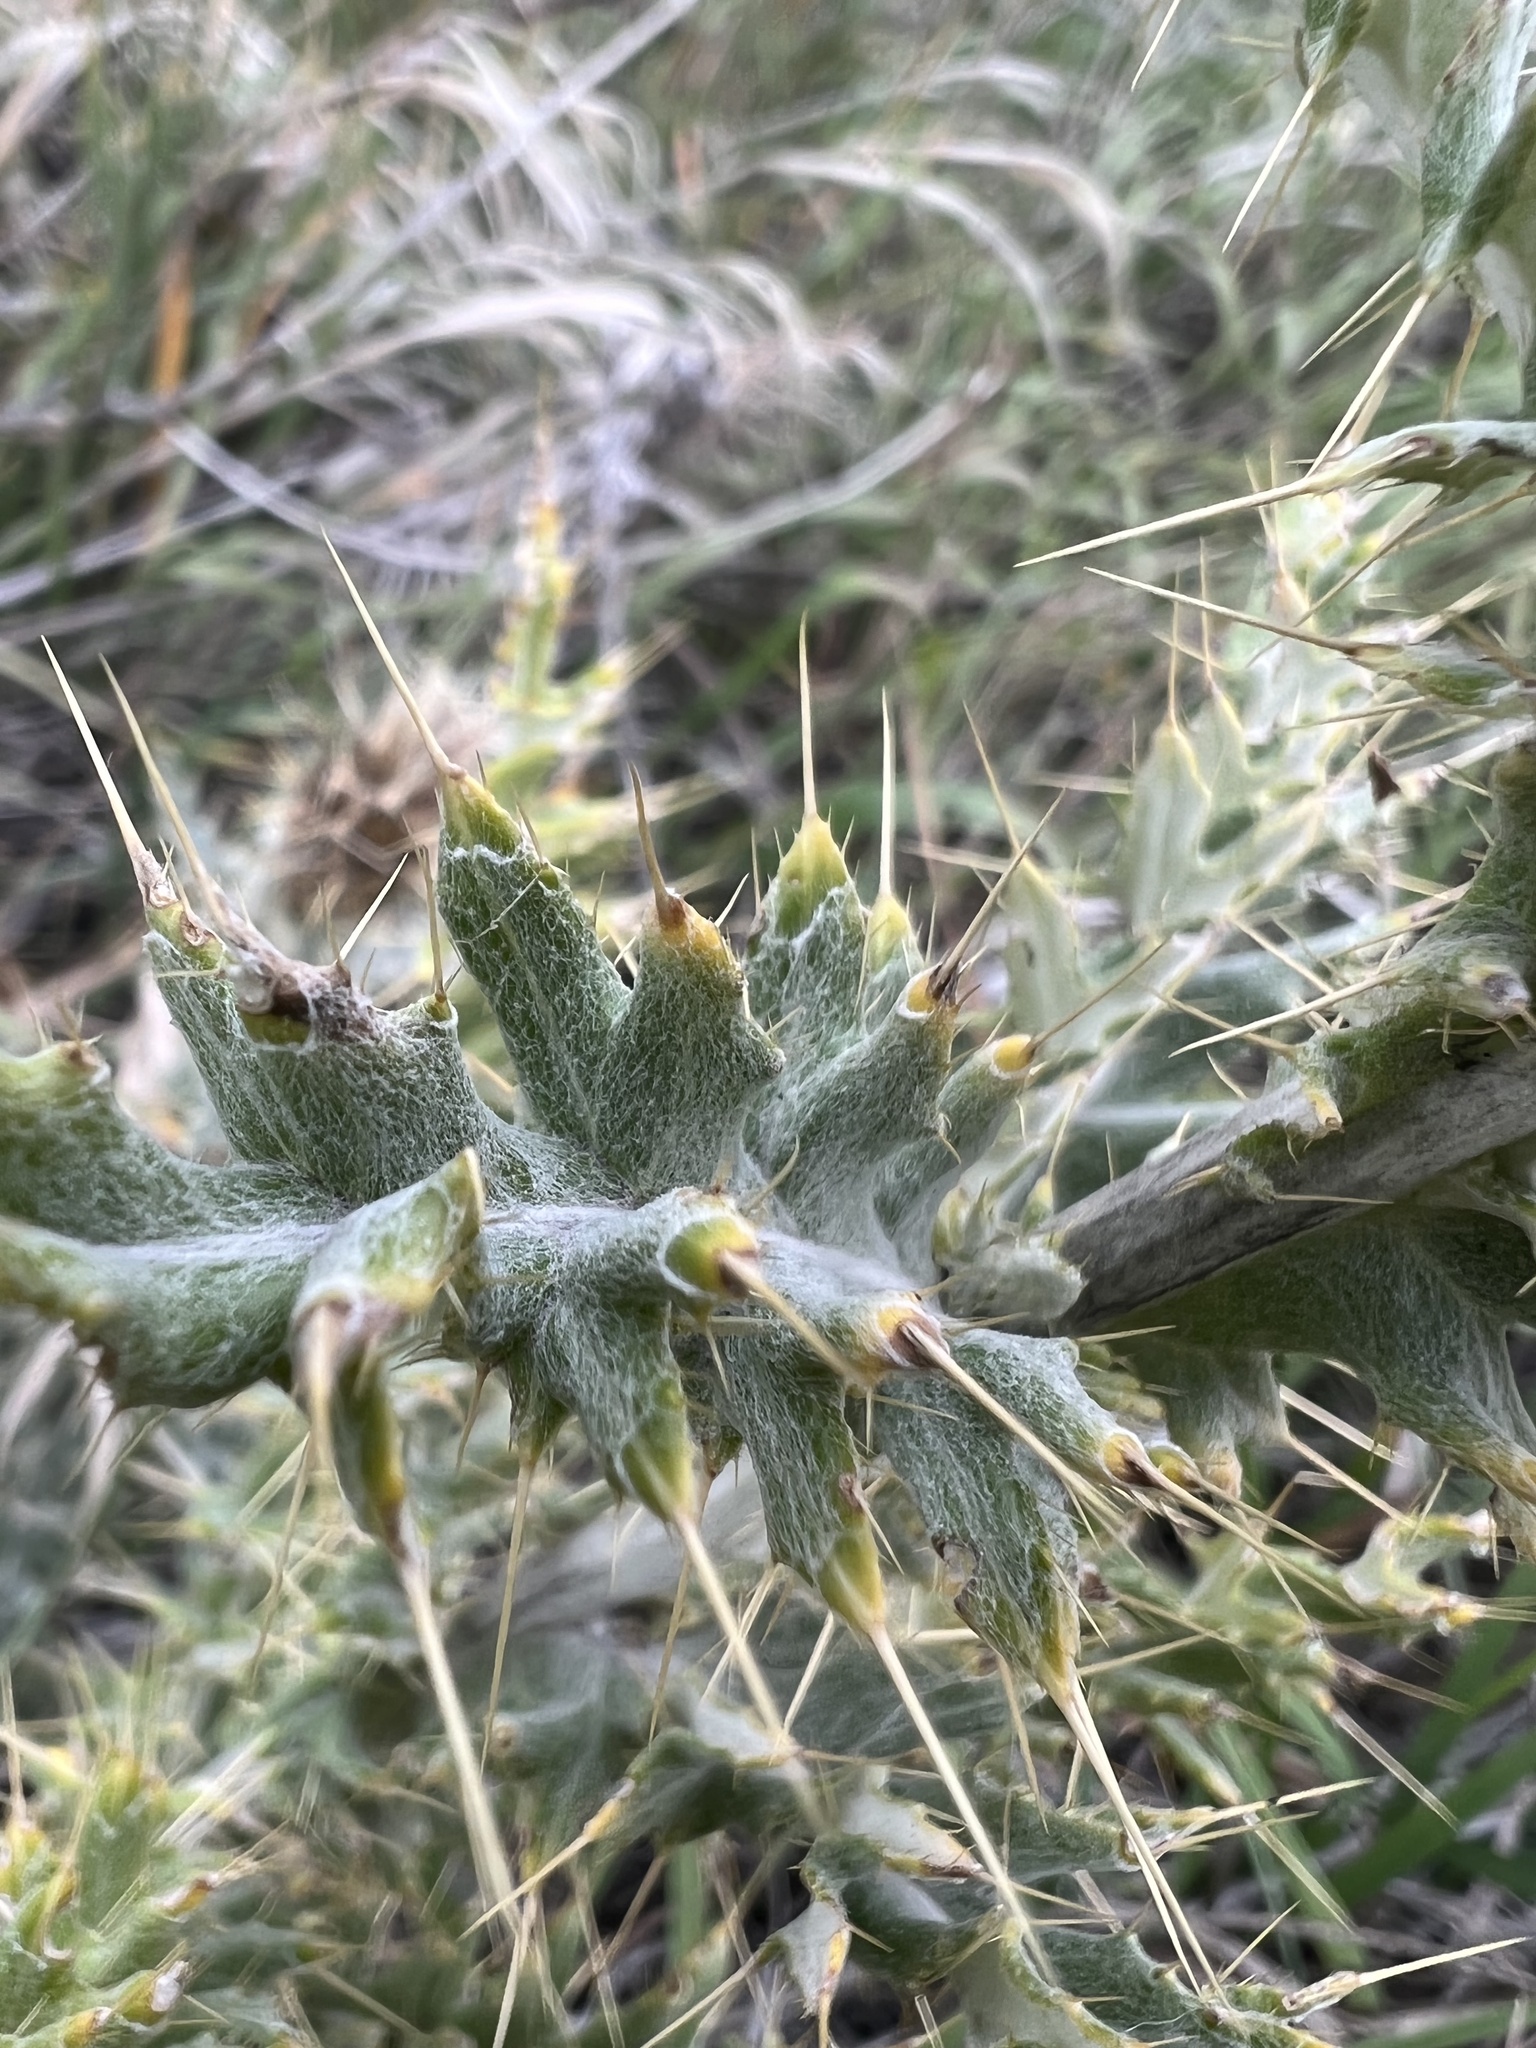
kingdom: Plantae
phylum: Tracheophyta
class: Magnoliopsida
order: Asterales
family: Asteraceae
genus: Cirsium
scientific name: Cirsium ochrocentrum
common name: Yellow-spine thistle
